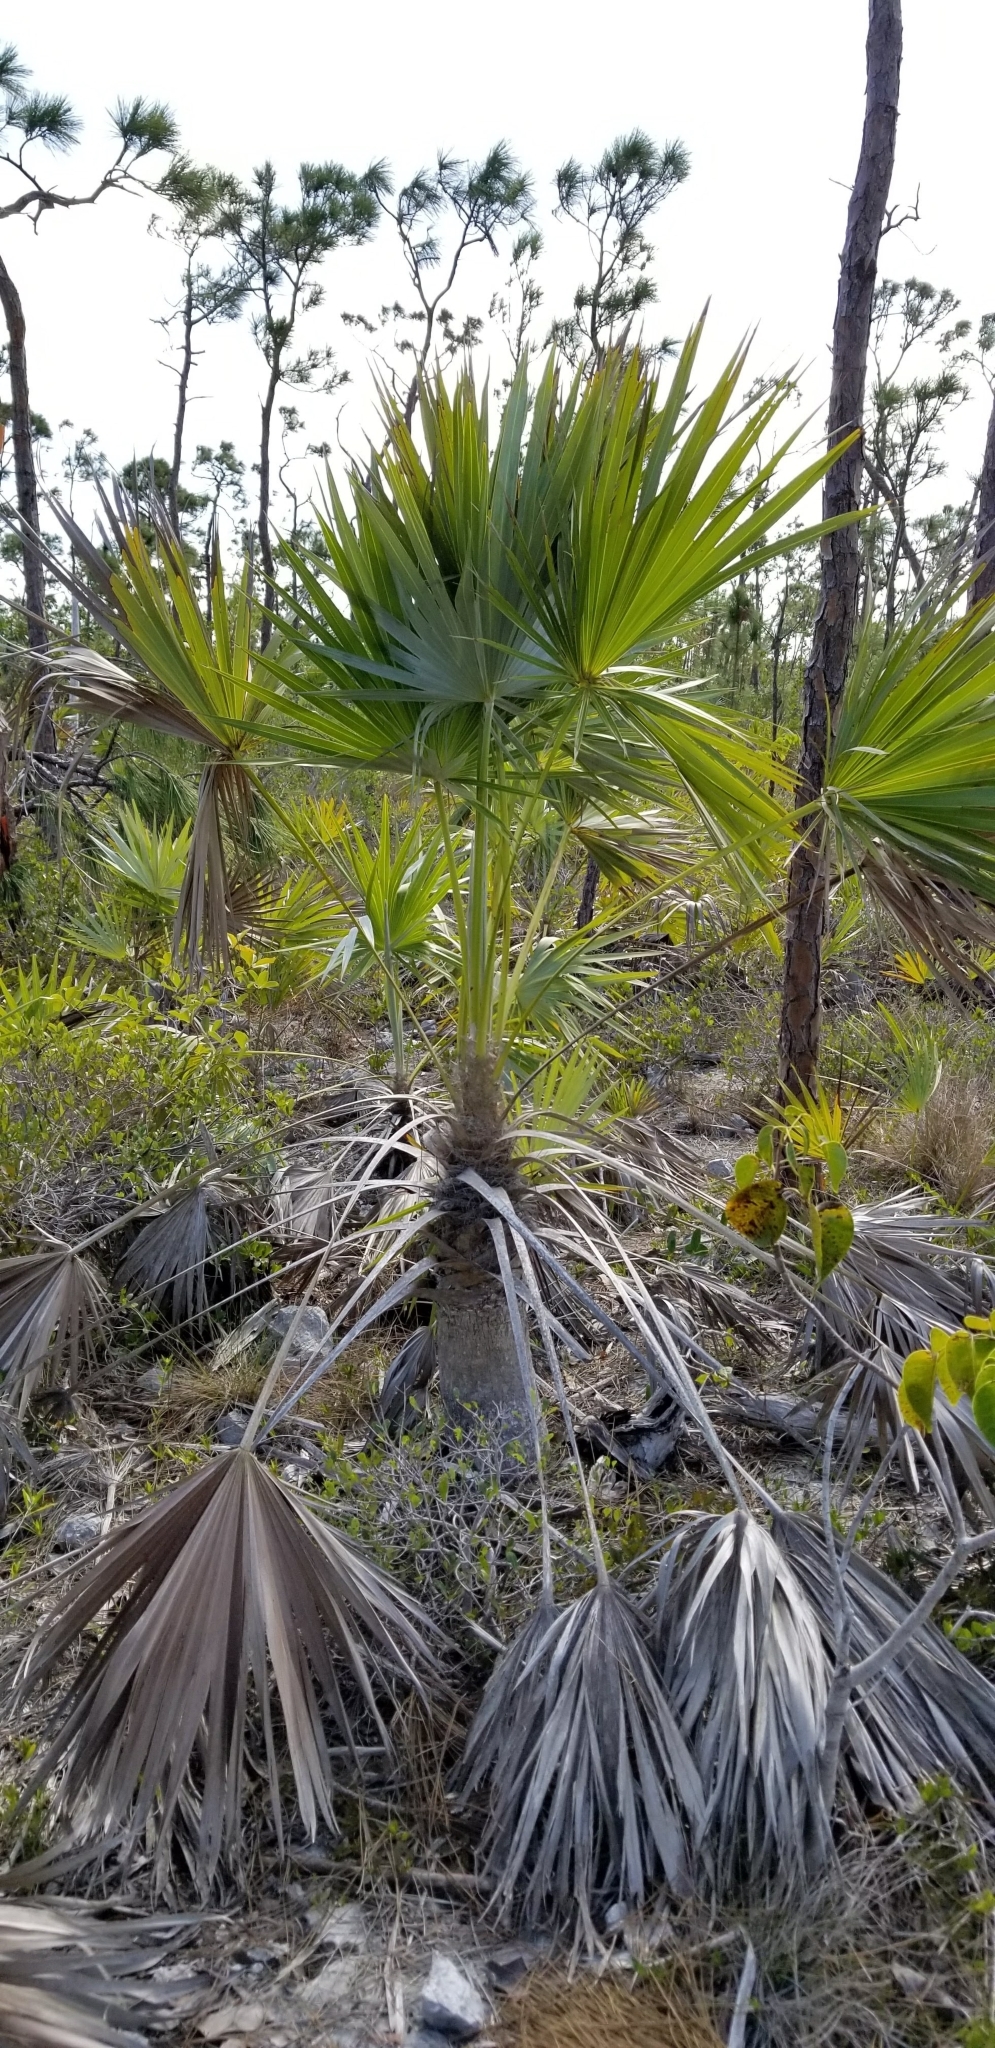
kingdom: Plantae
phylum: Tracheophyta
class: Liliopsida
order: Arecales
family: Arecaceae
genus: Leucothrinax
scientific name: Leucothrinax morrisii
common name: Key palm
